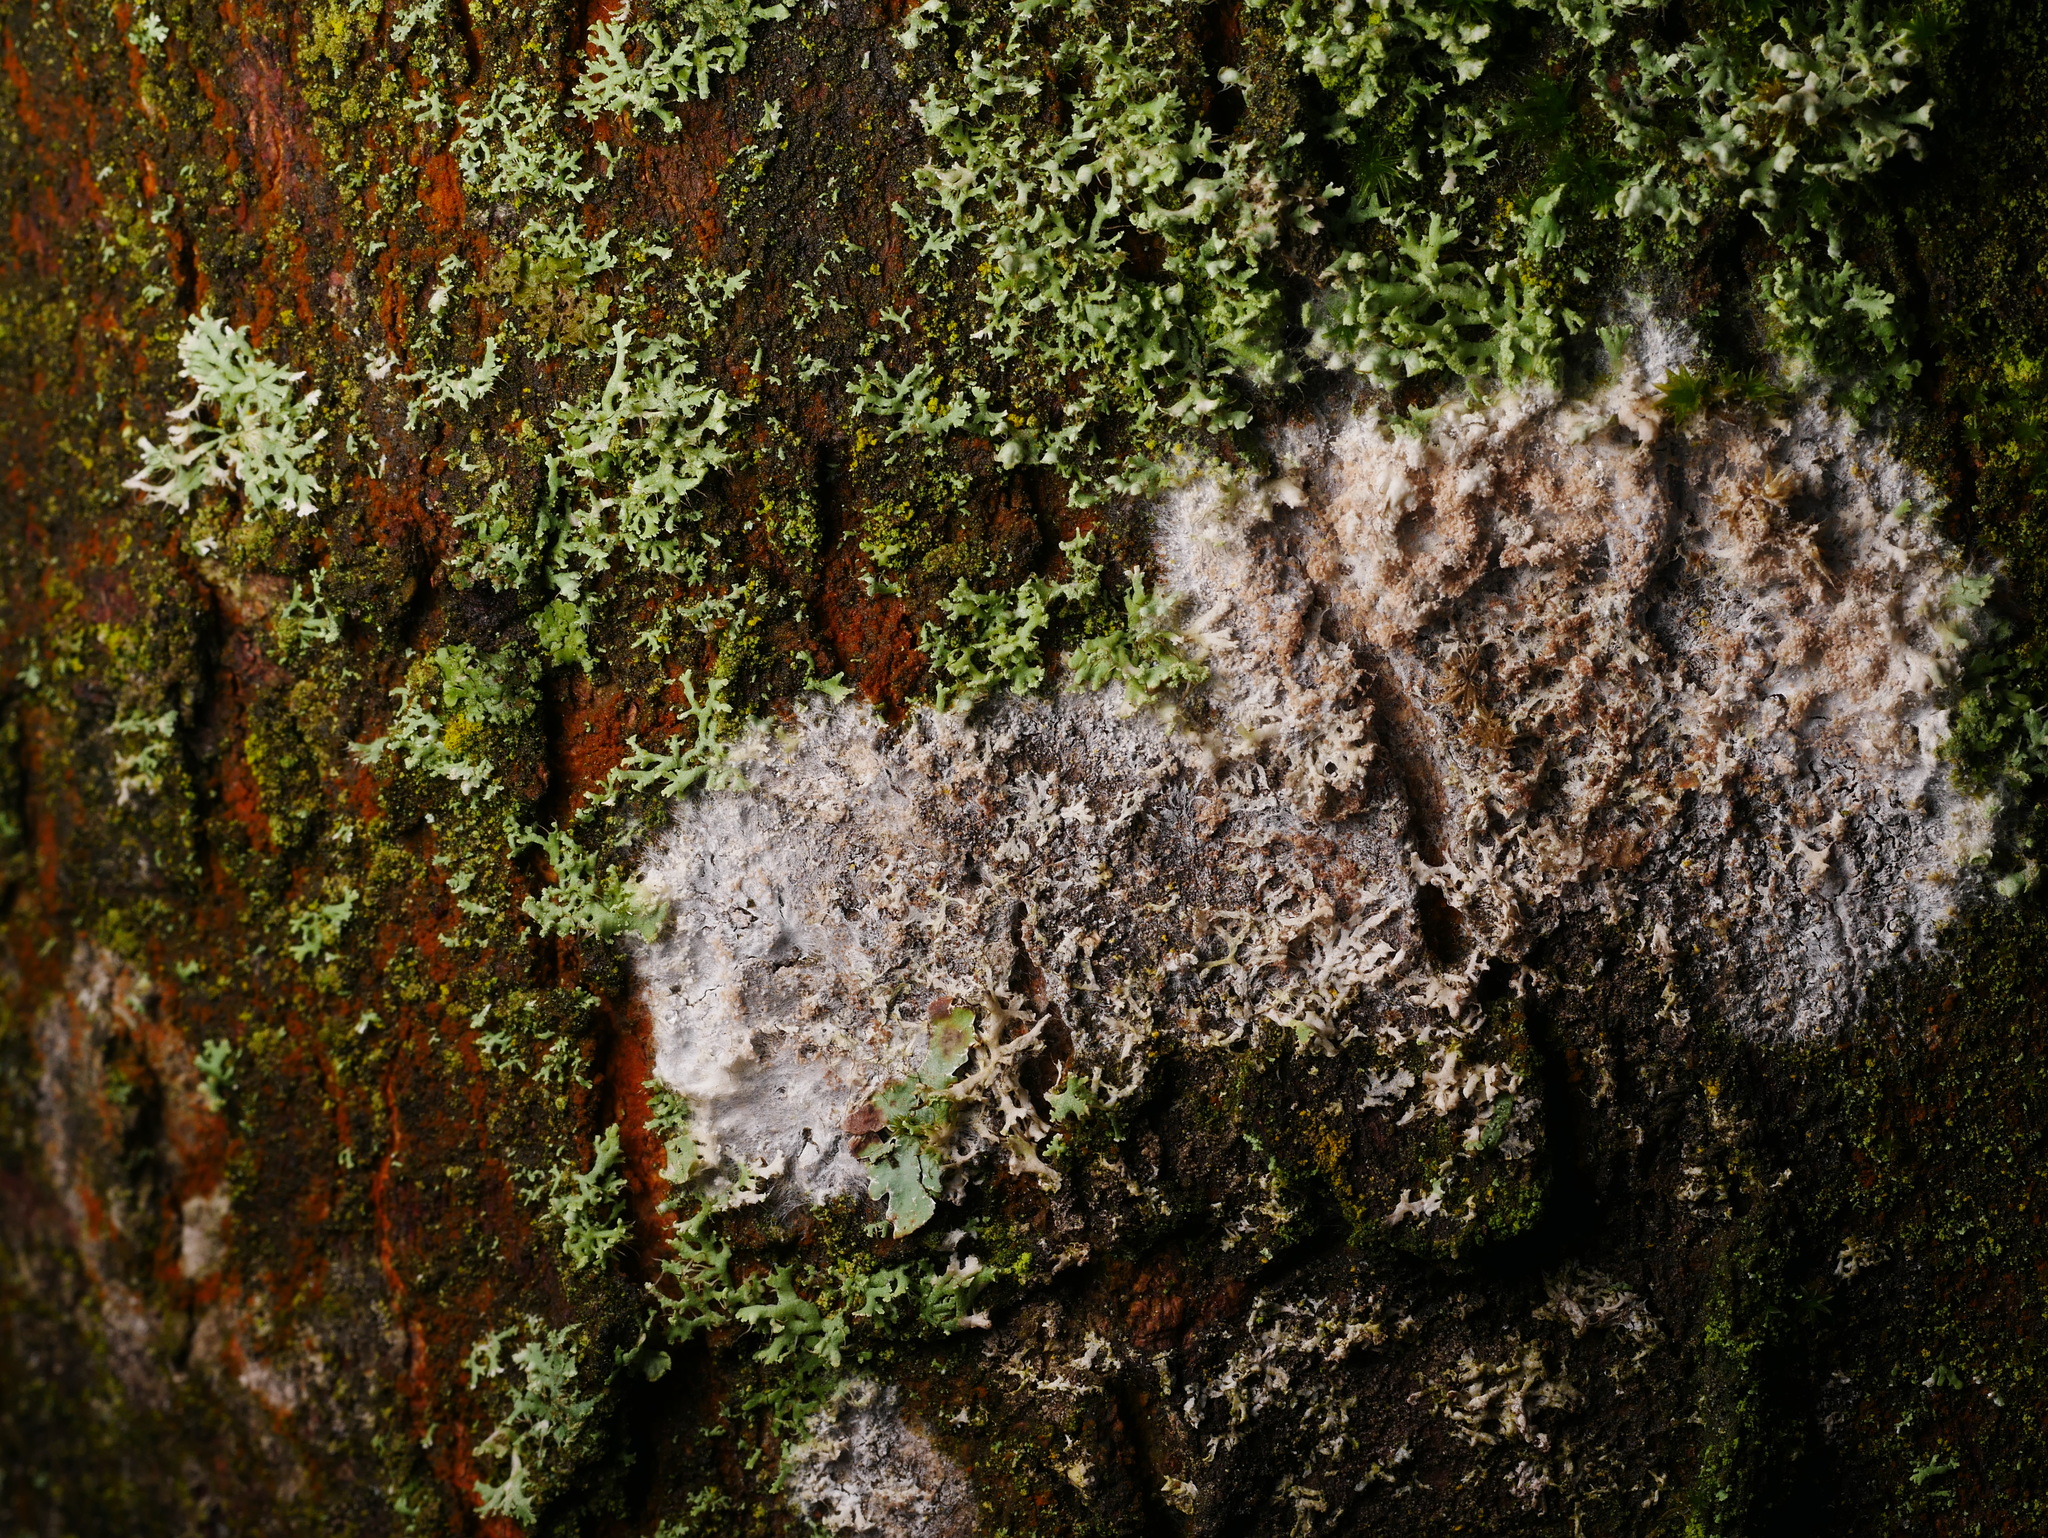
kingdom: Fungi
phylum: Basidiomycota
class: Agaricomycetes
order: Atheliales
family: Atheliaceae
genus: Athelia
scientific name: Athelia arachnoidea
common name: Candelabra duster
